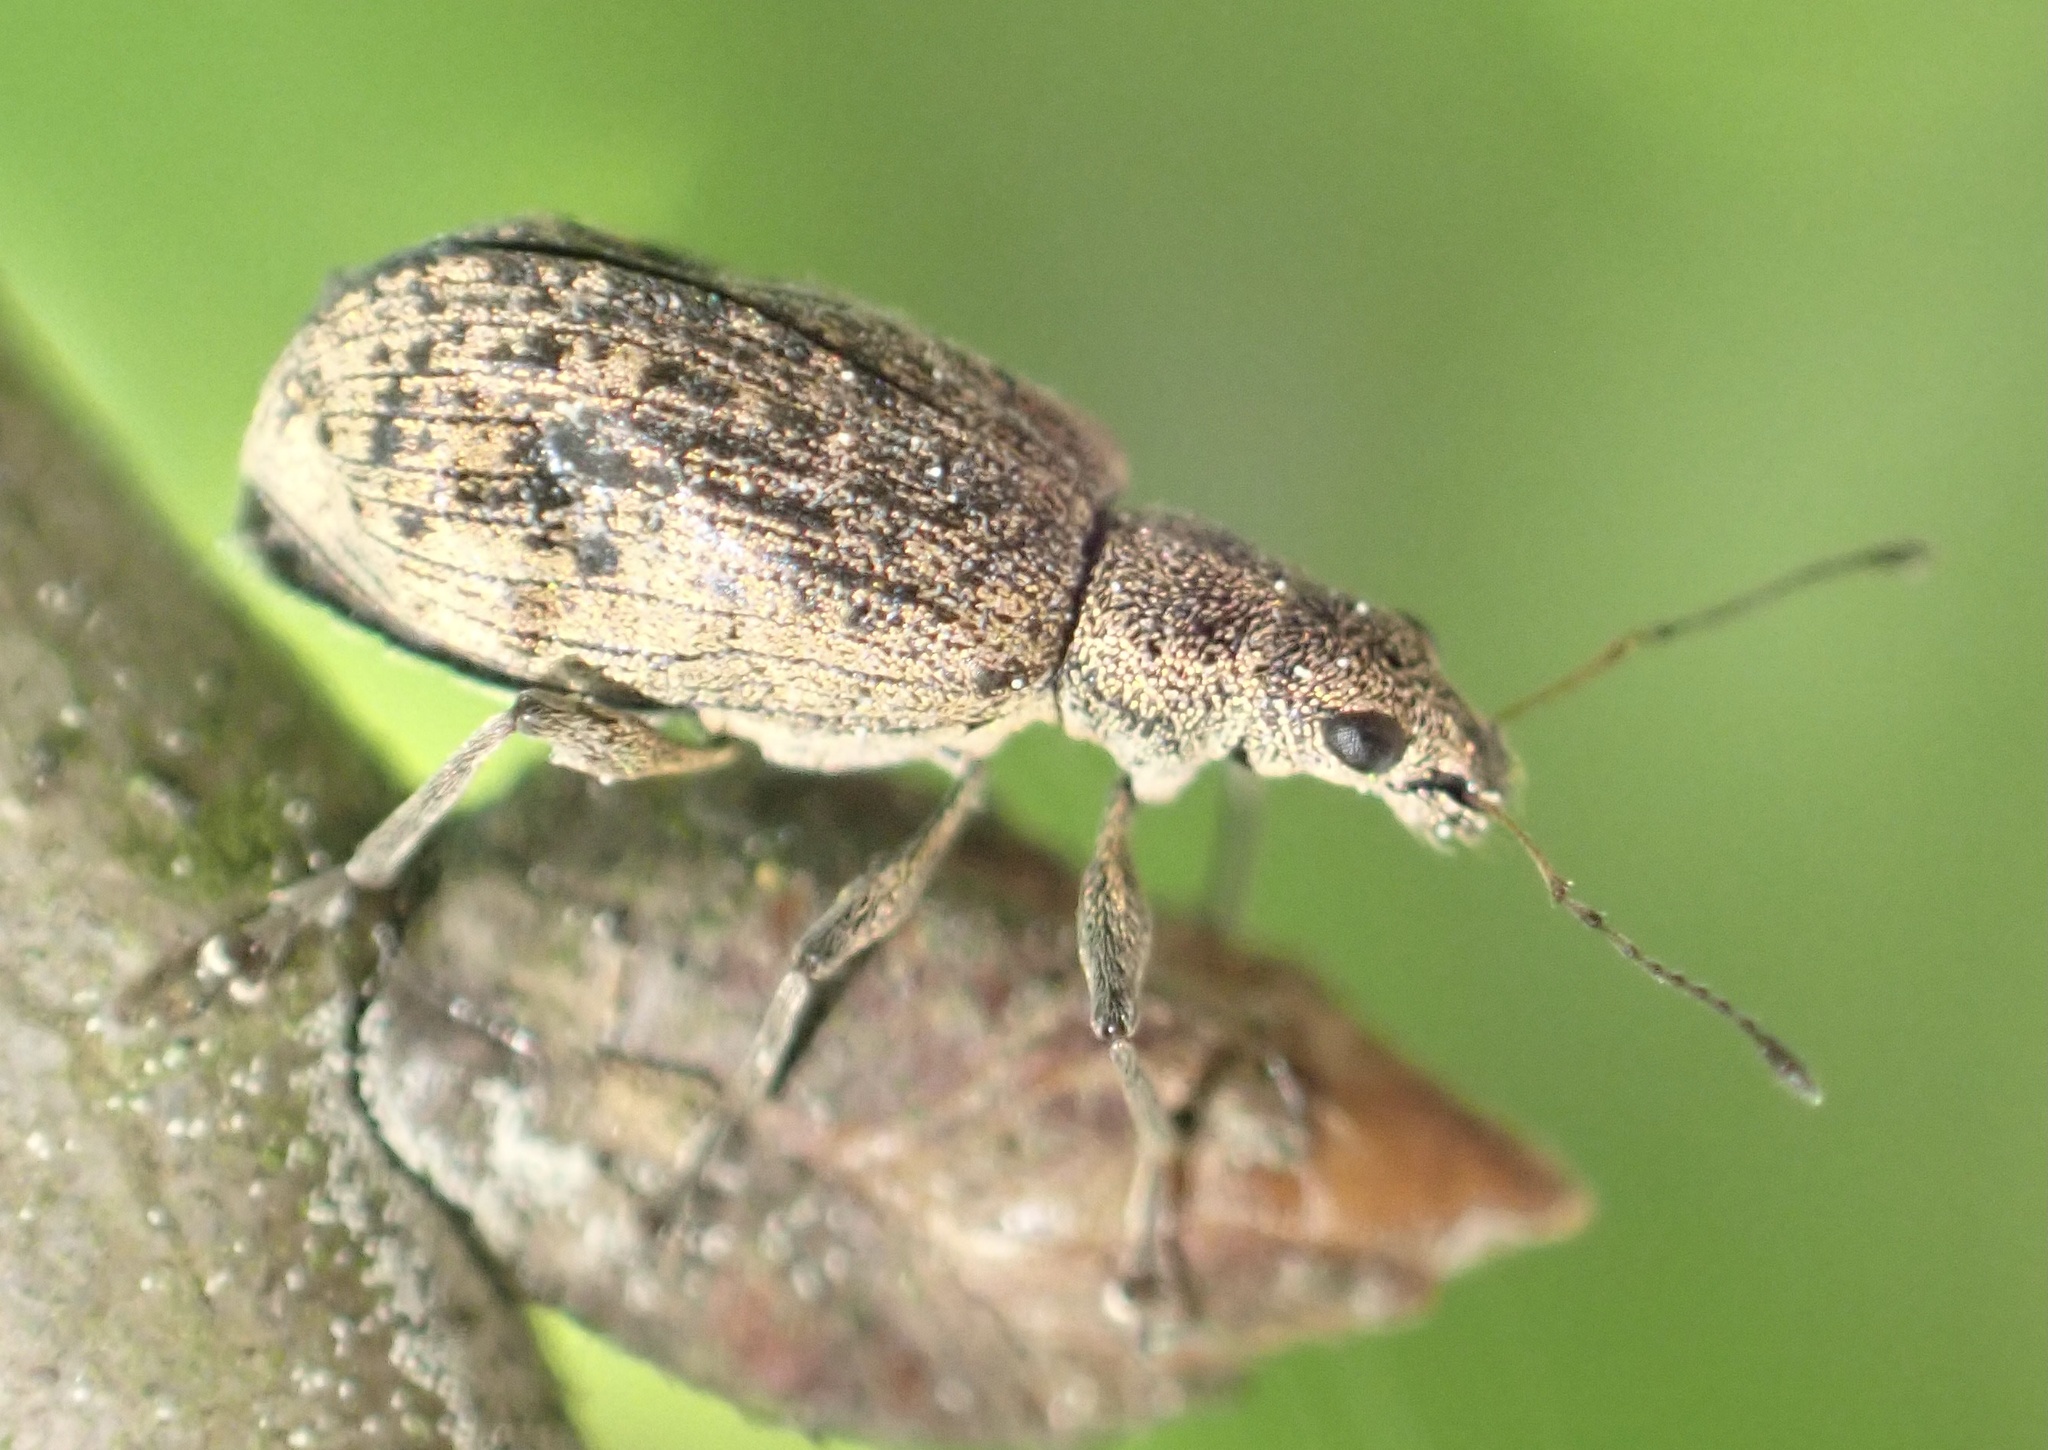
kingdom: Animalia
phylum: Arthropoda
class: Insecta
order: Coleoptera
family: Curculionidae
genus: Polydrusus
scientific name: Polydrusus cervinus
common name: Weevil
